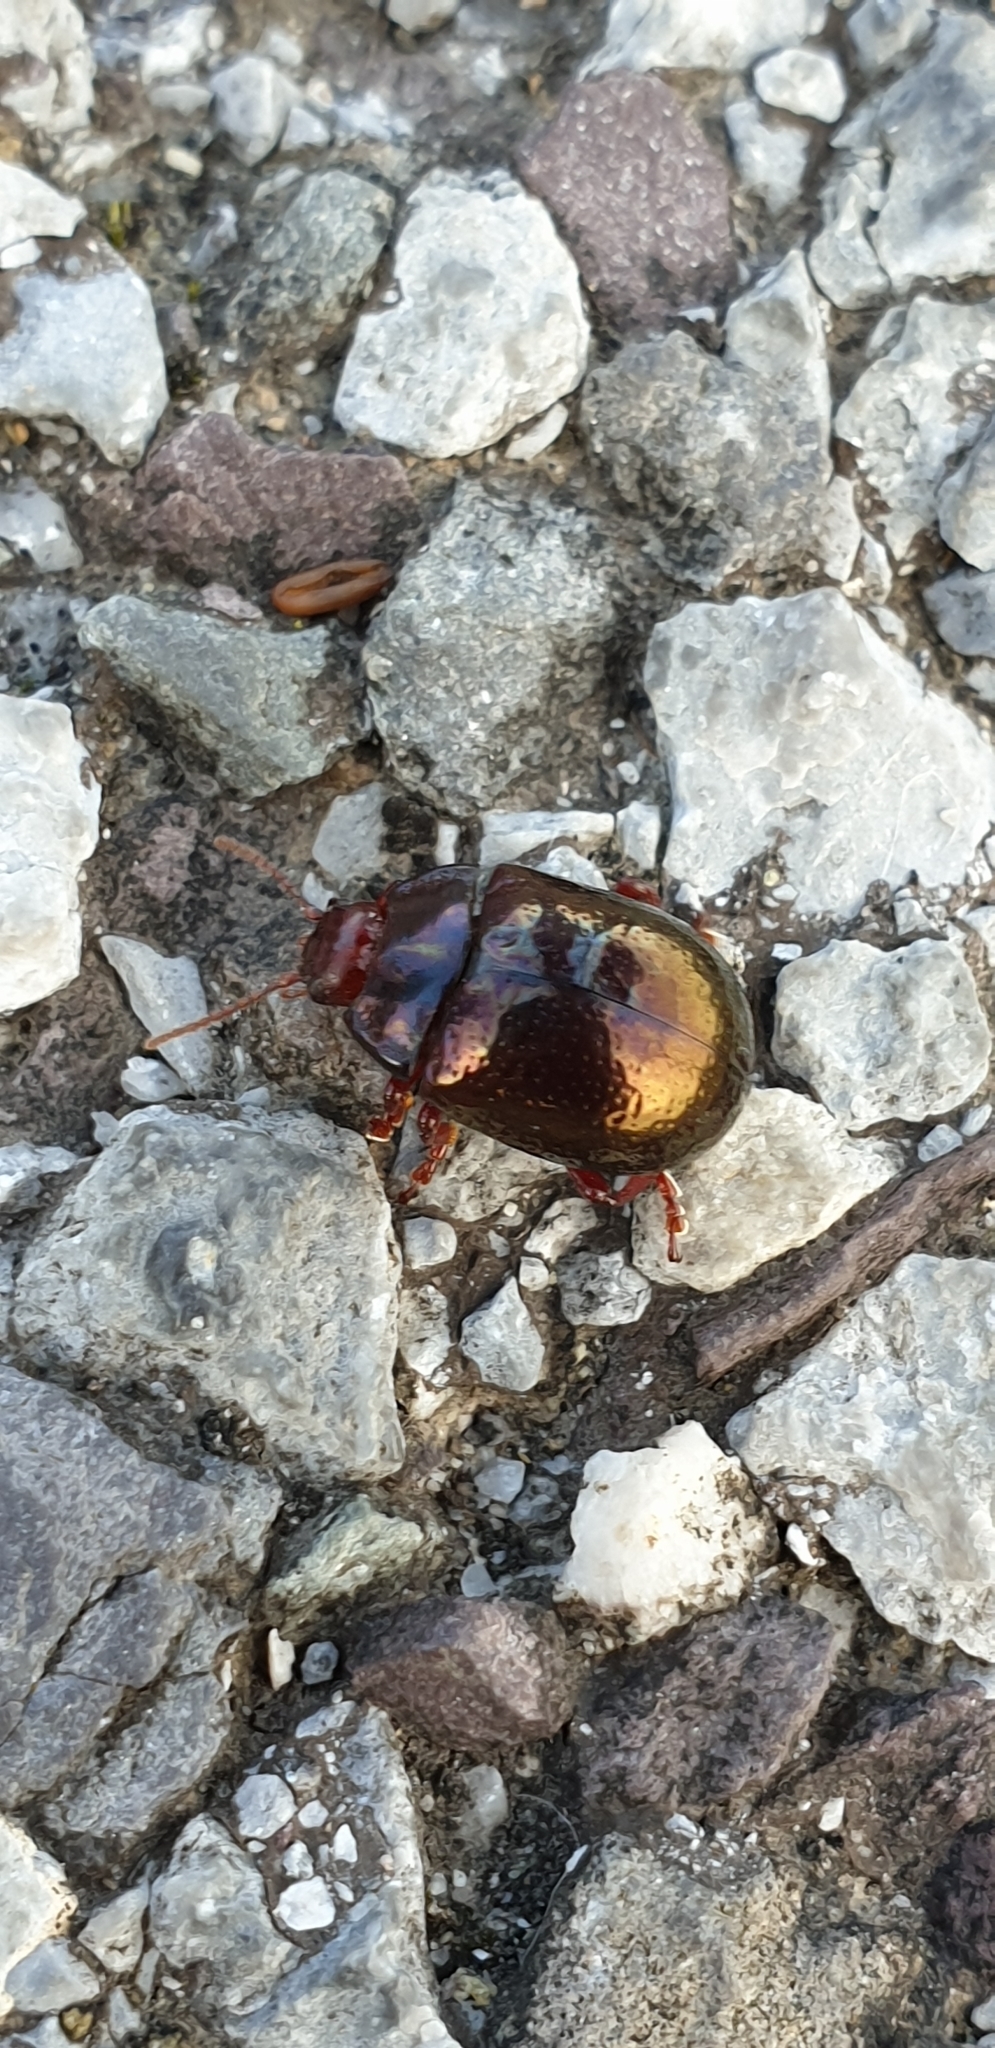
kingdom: Animalia
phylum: Arthropoda
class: Insecta
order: Coleoptera
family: Chrysomelidae
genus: Chrysolina
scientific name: Chrysolina bankii
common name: Leaf beetle
